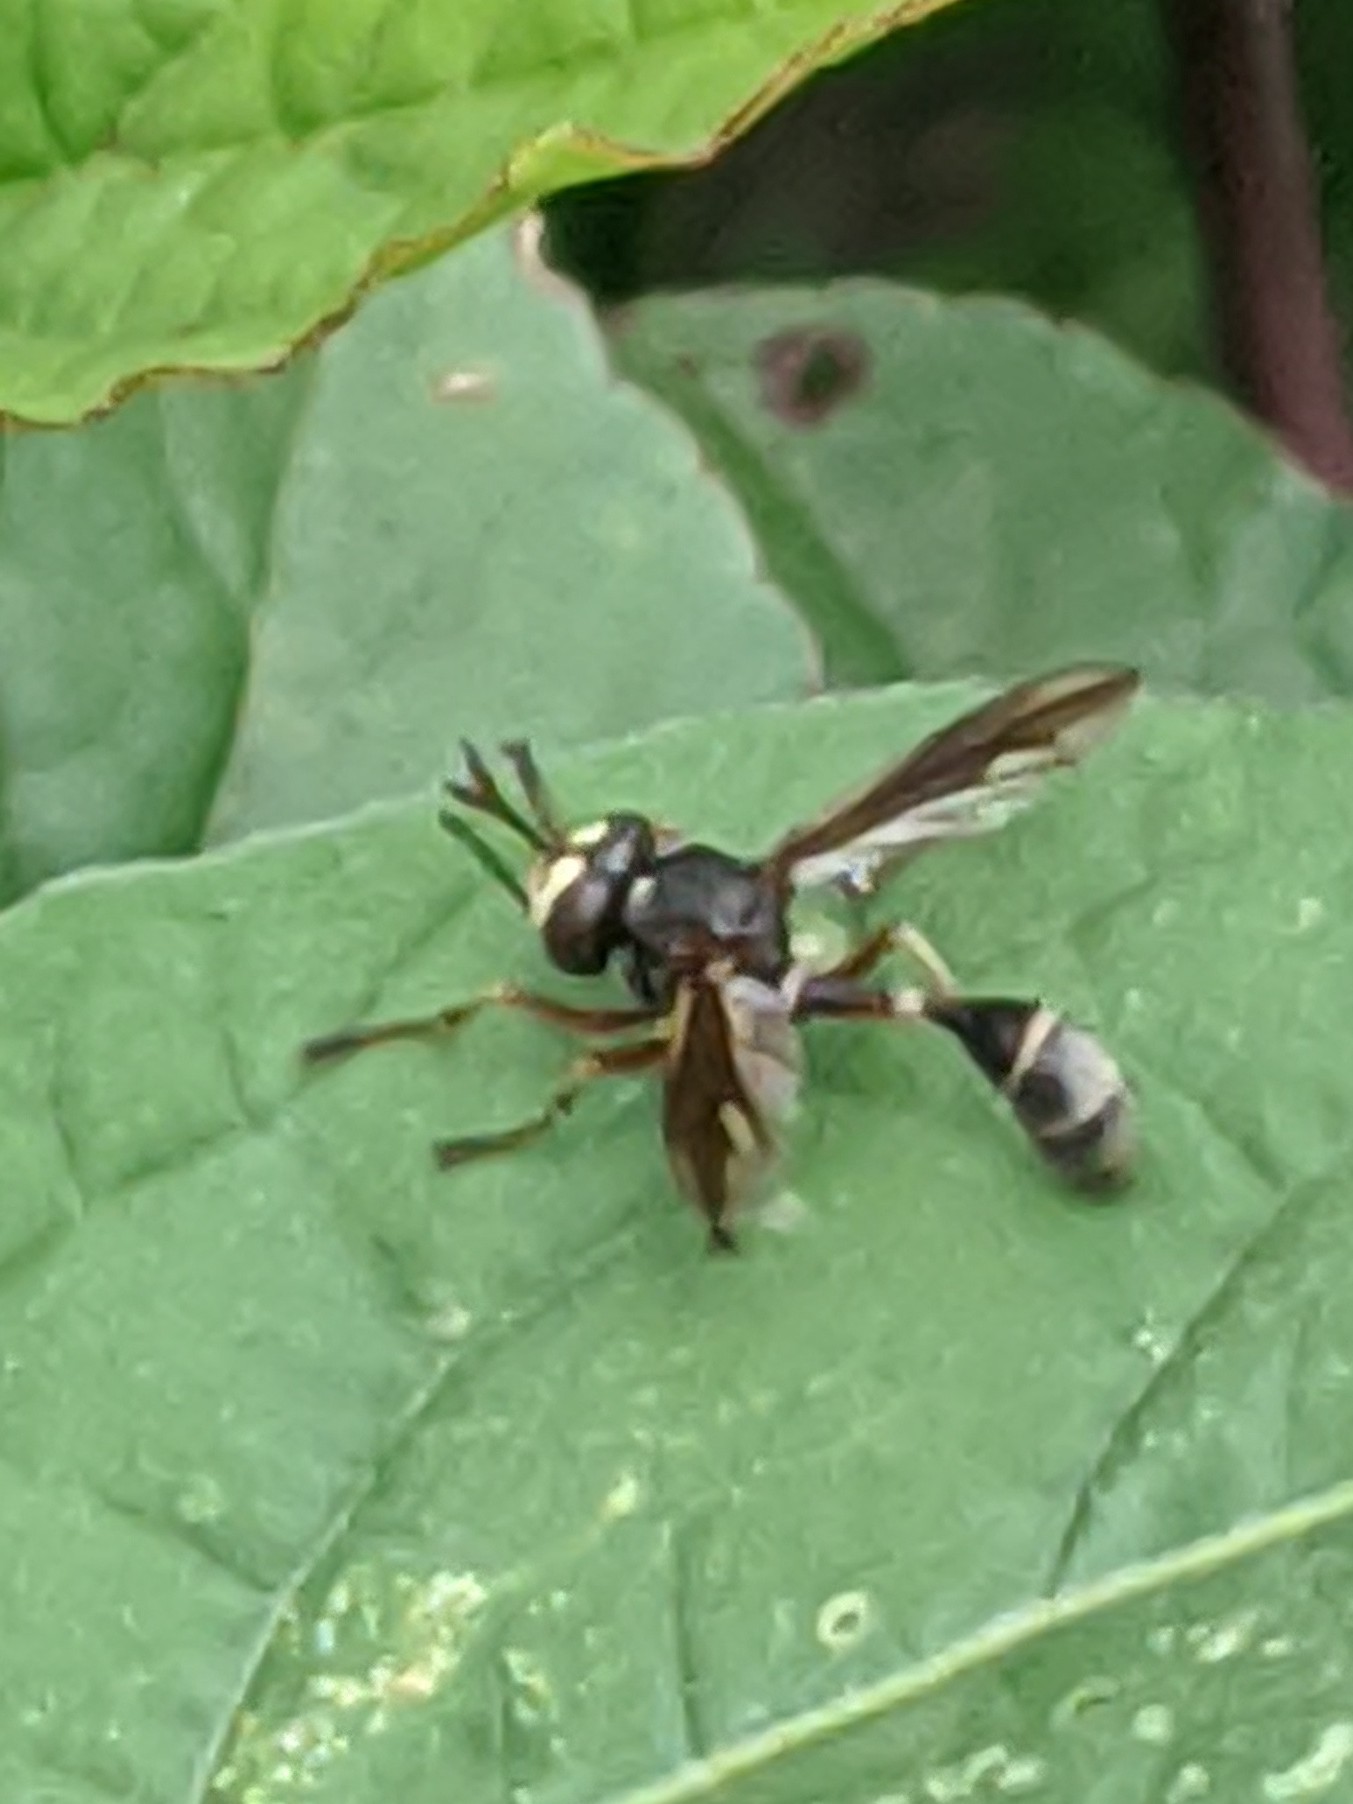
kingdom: Animalia
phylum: Arthropoda
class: Insecta
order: Diptera
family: Conopidae
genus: Physocephala
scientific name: Physocephala furcillata
